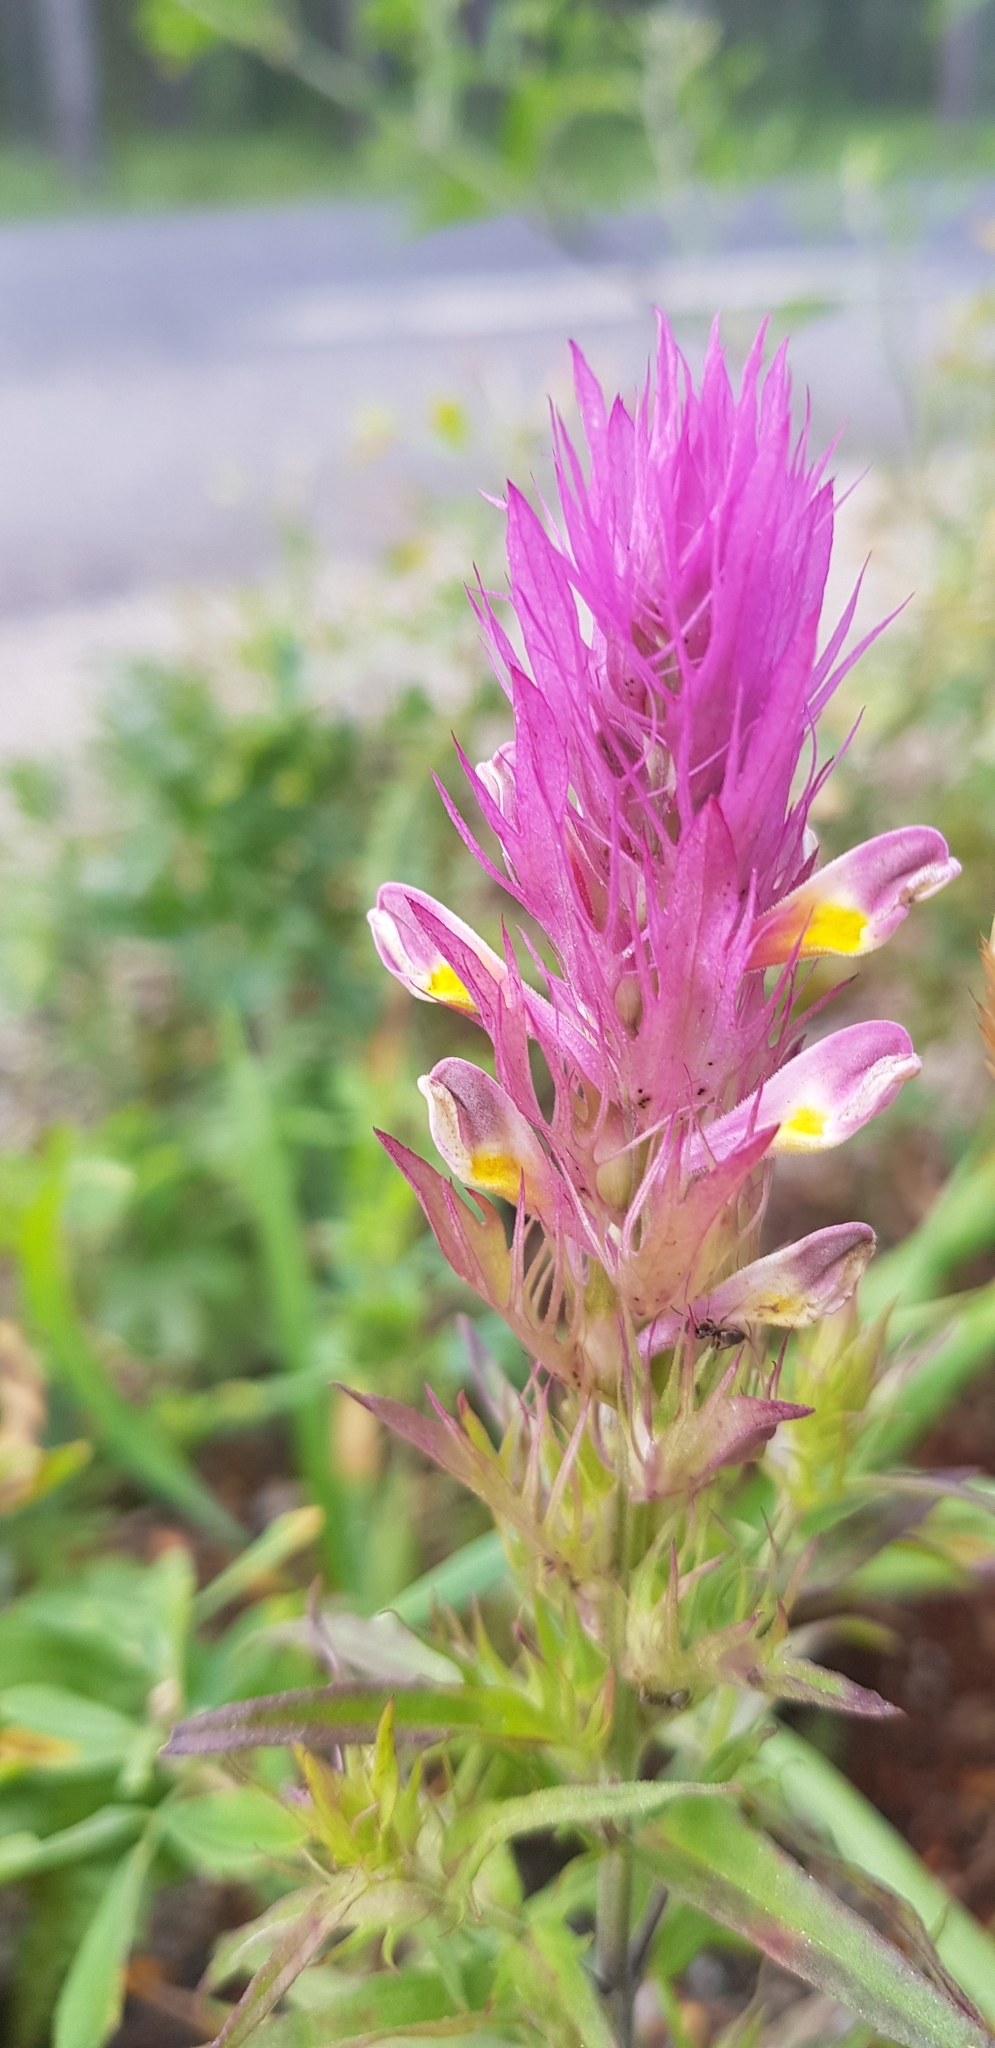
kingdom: Plantae
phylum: Tracheophyta
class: Magnoliopsida
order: Lamiales
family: Orobanchaceae
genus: Melampyrum
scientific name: Melampyrum arvense
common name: Field cow-wheat
